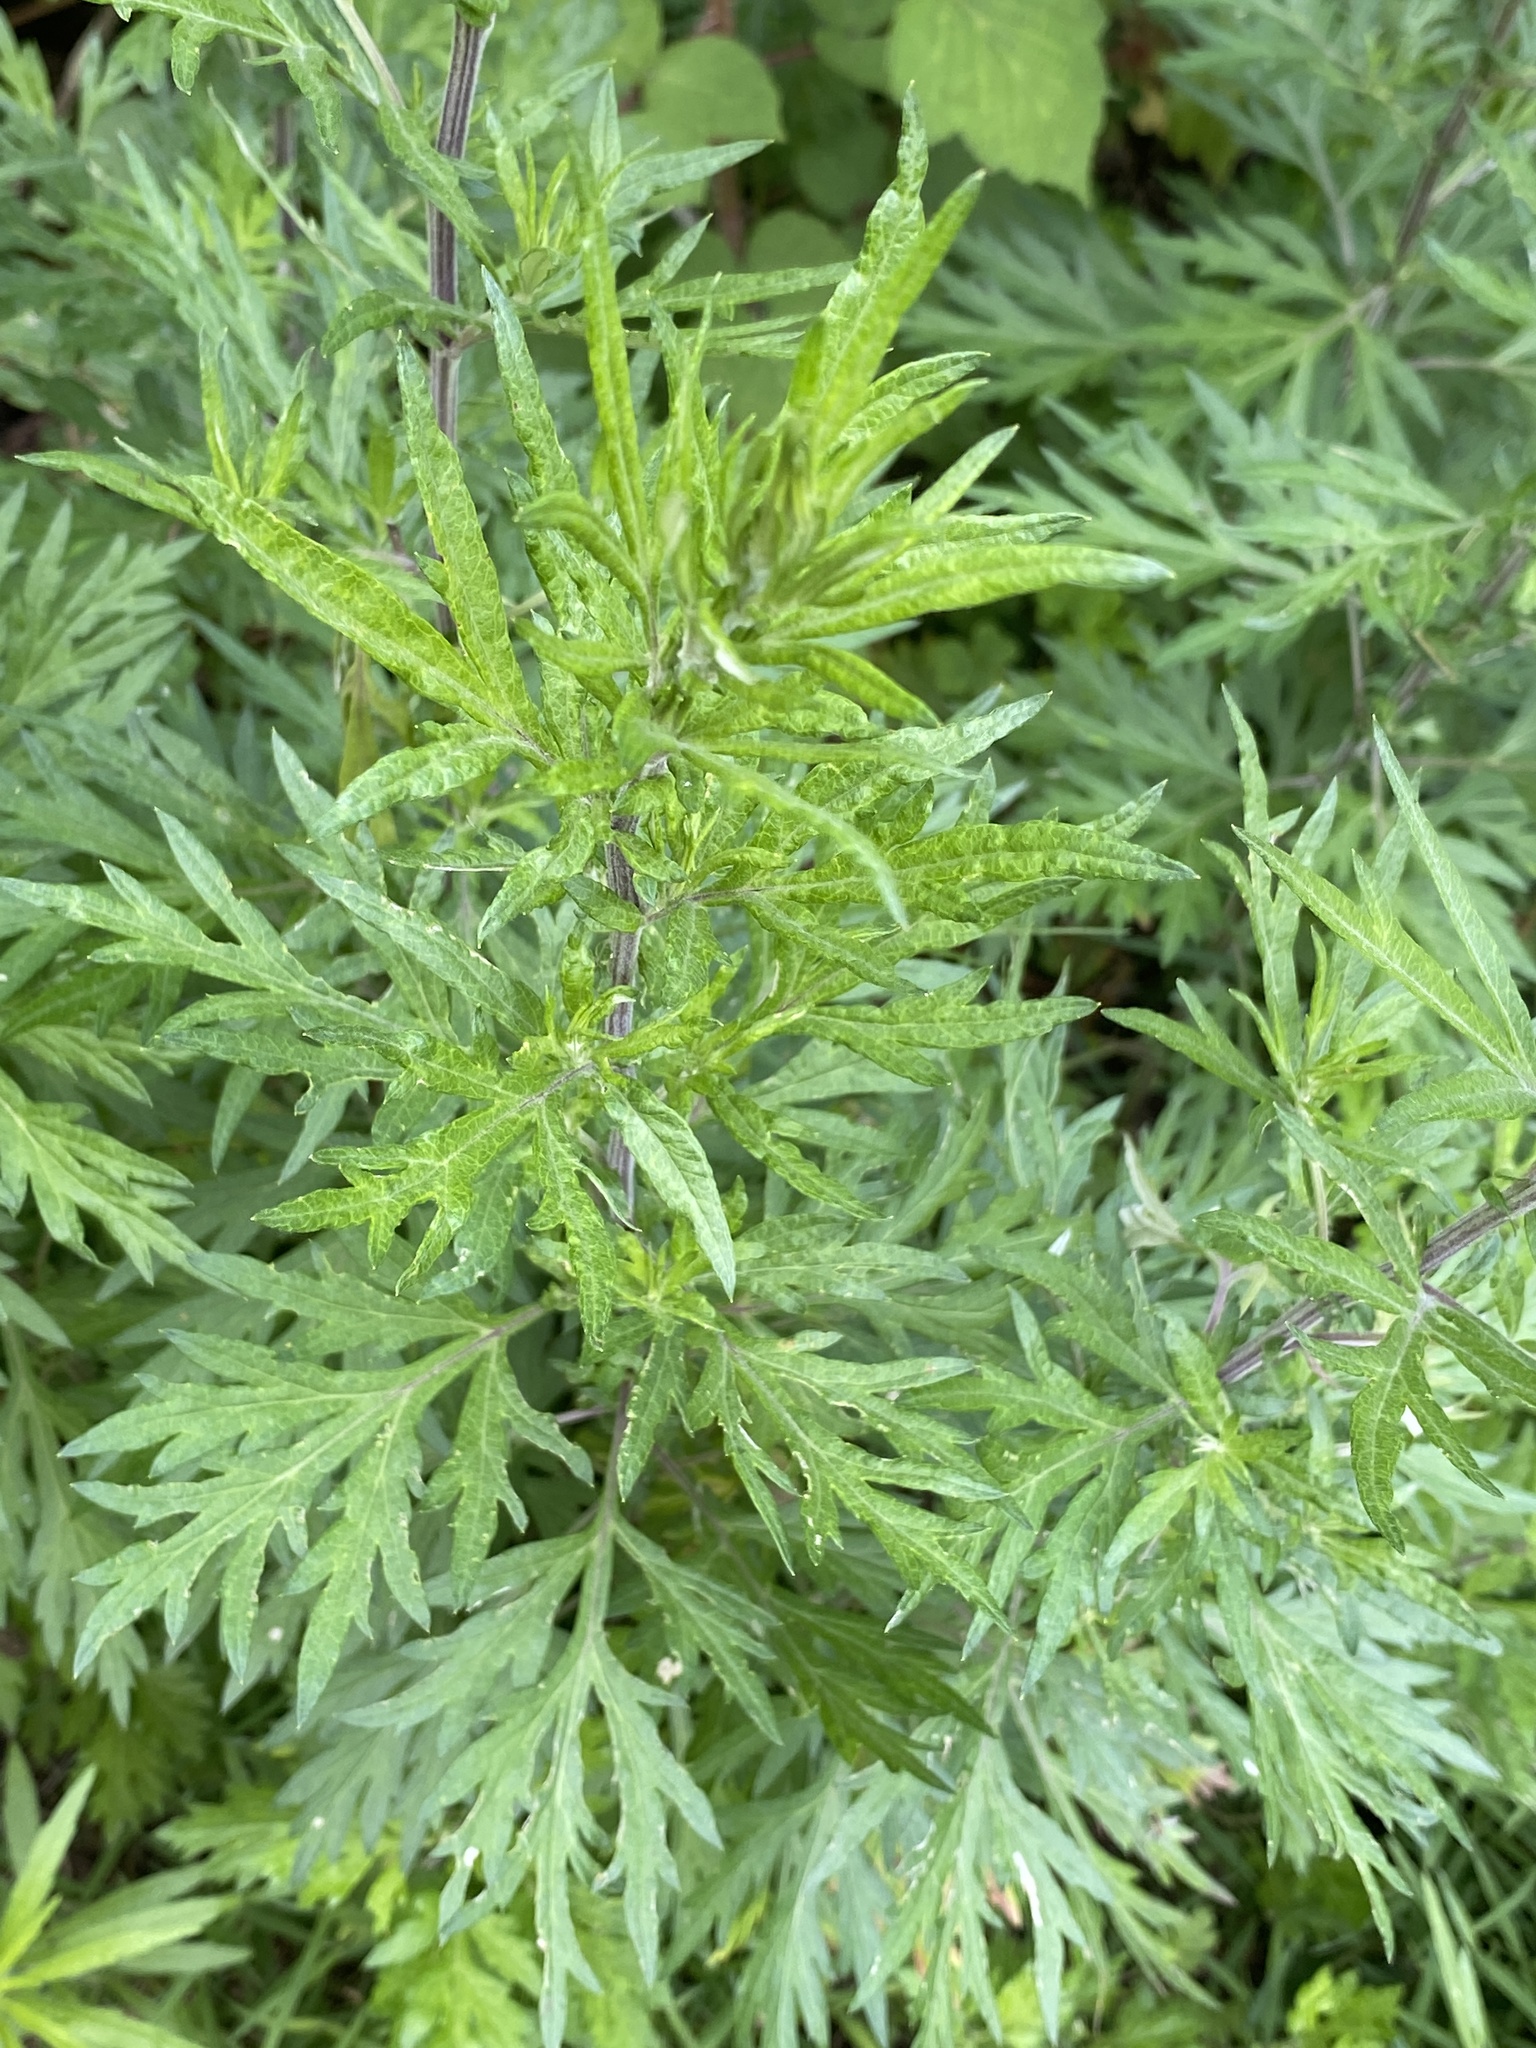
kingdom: Plantae
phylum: Tracheophyta
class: Magnoliopsida
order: Asterales
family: Asteraceae
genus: Artemisia
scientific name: Artemisia vulgaris
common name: Mugwort
